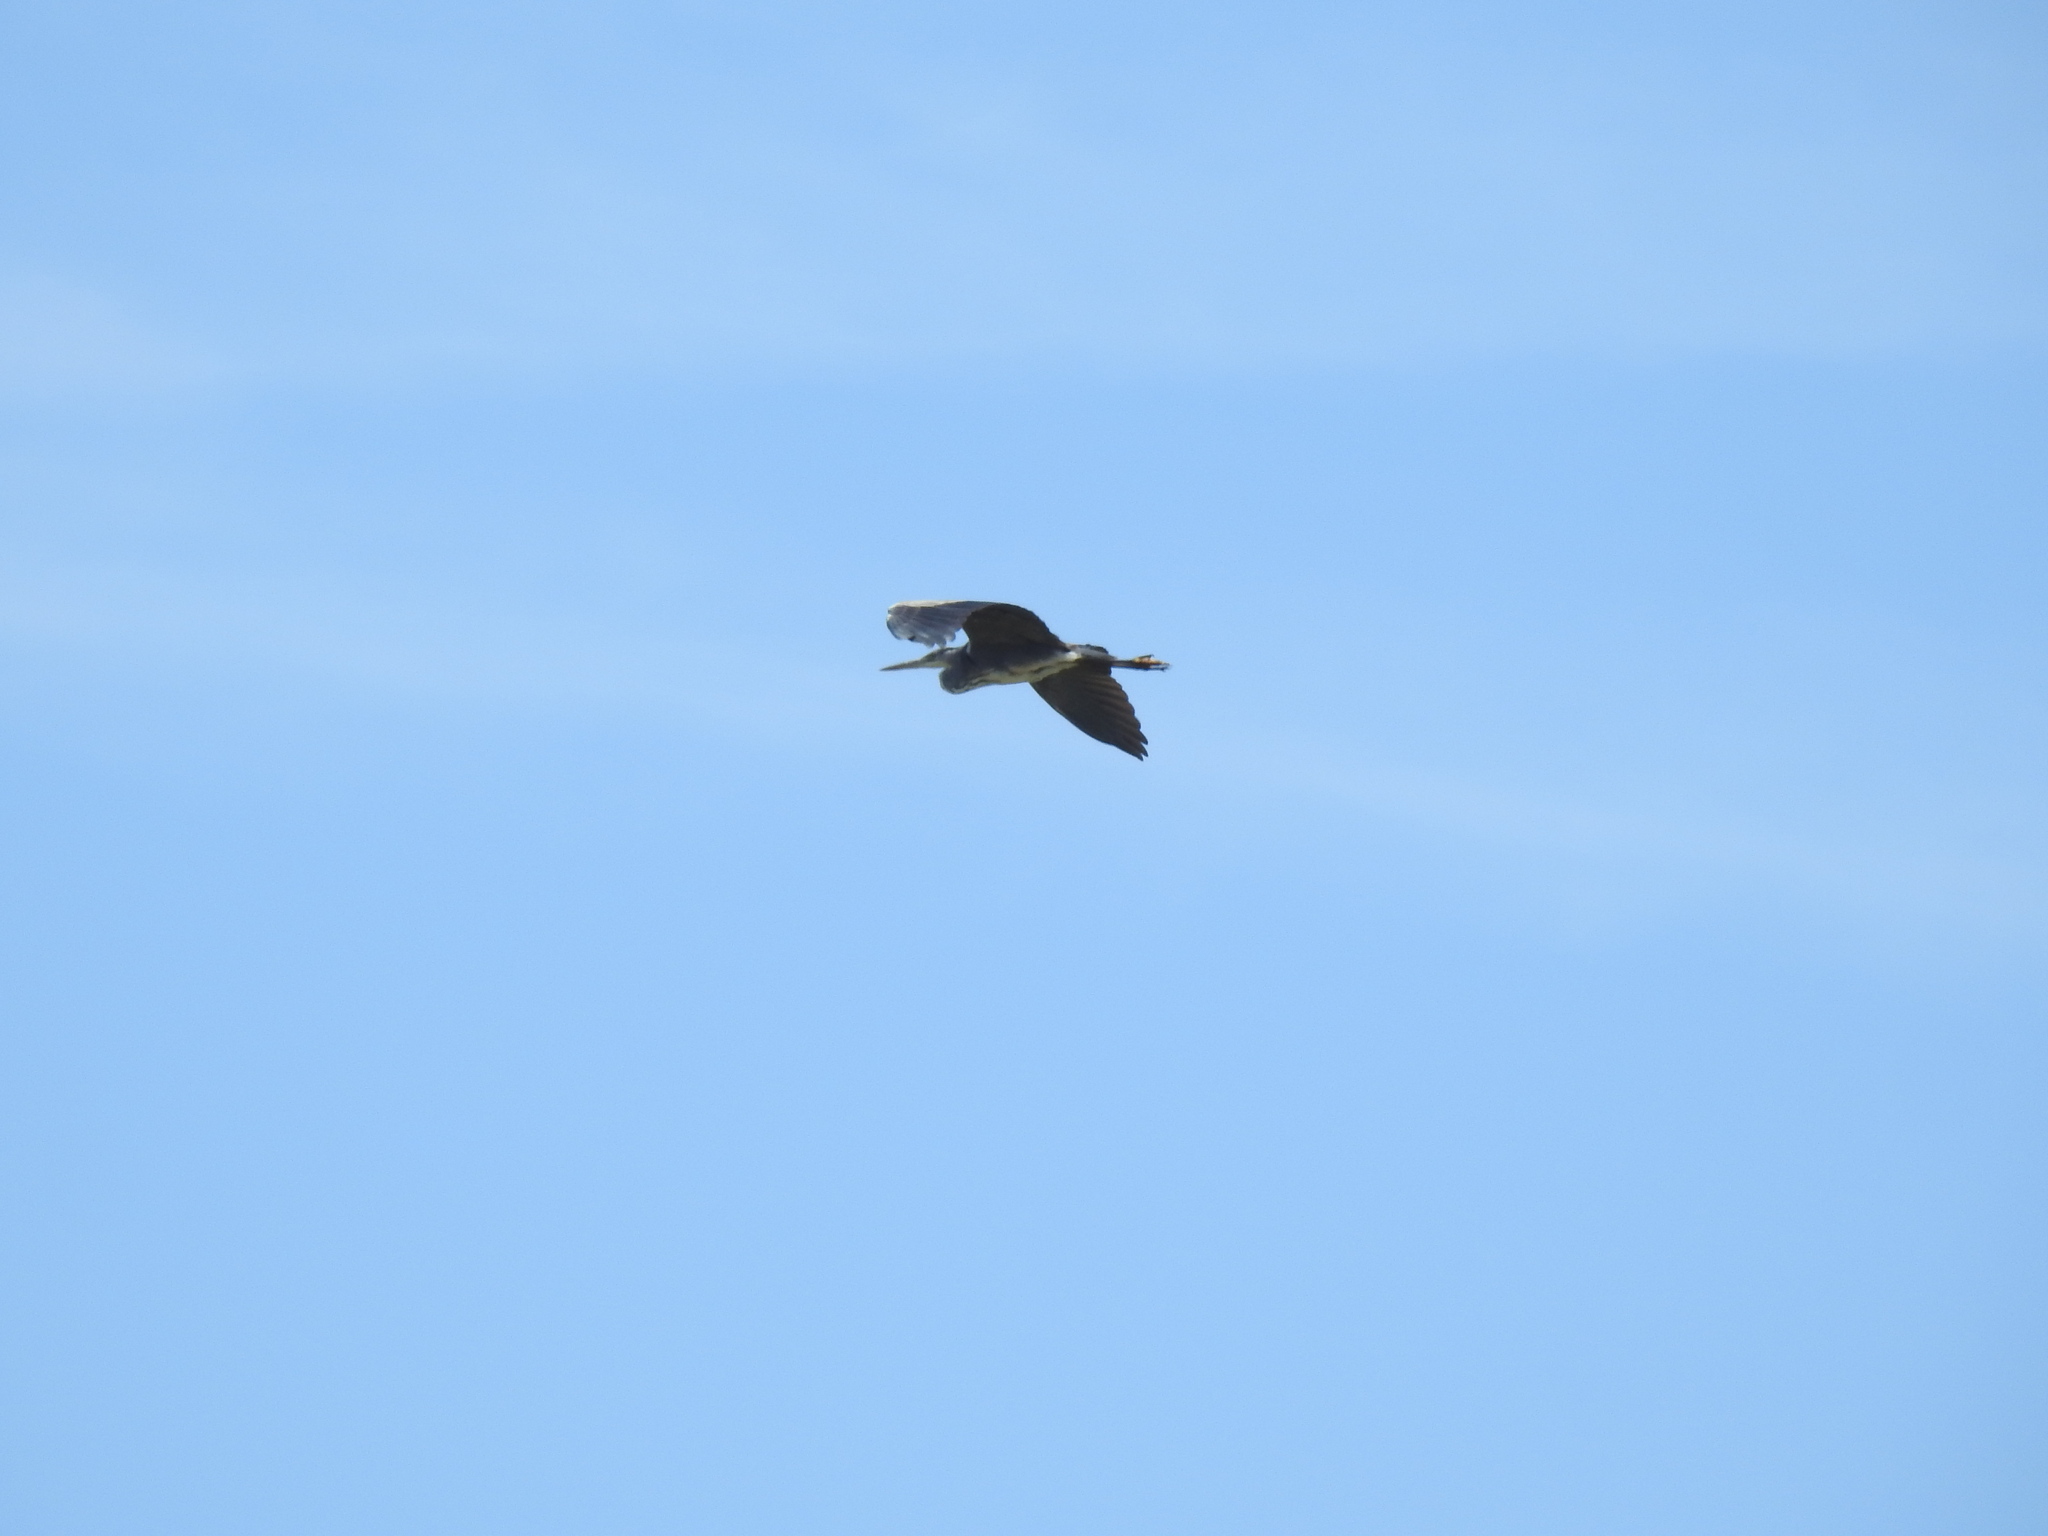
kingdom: Animalia
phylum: Chordata
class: Aves
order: Pelecaniformes
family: Ardeidae
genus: Ardea
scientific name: Ardea cinerea
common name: Grey heron
